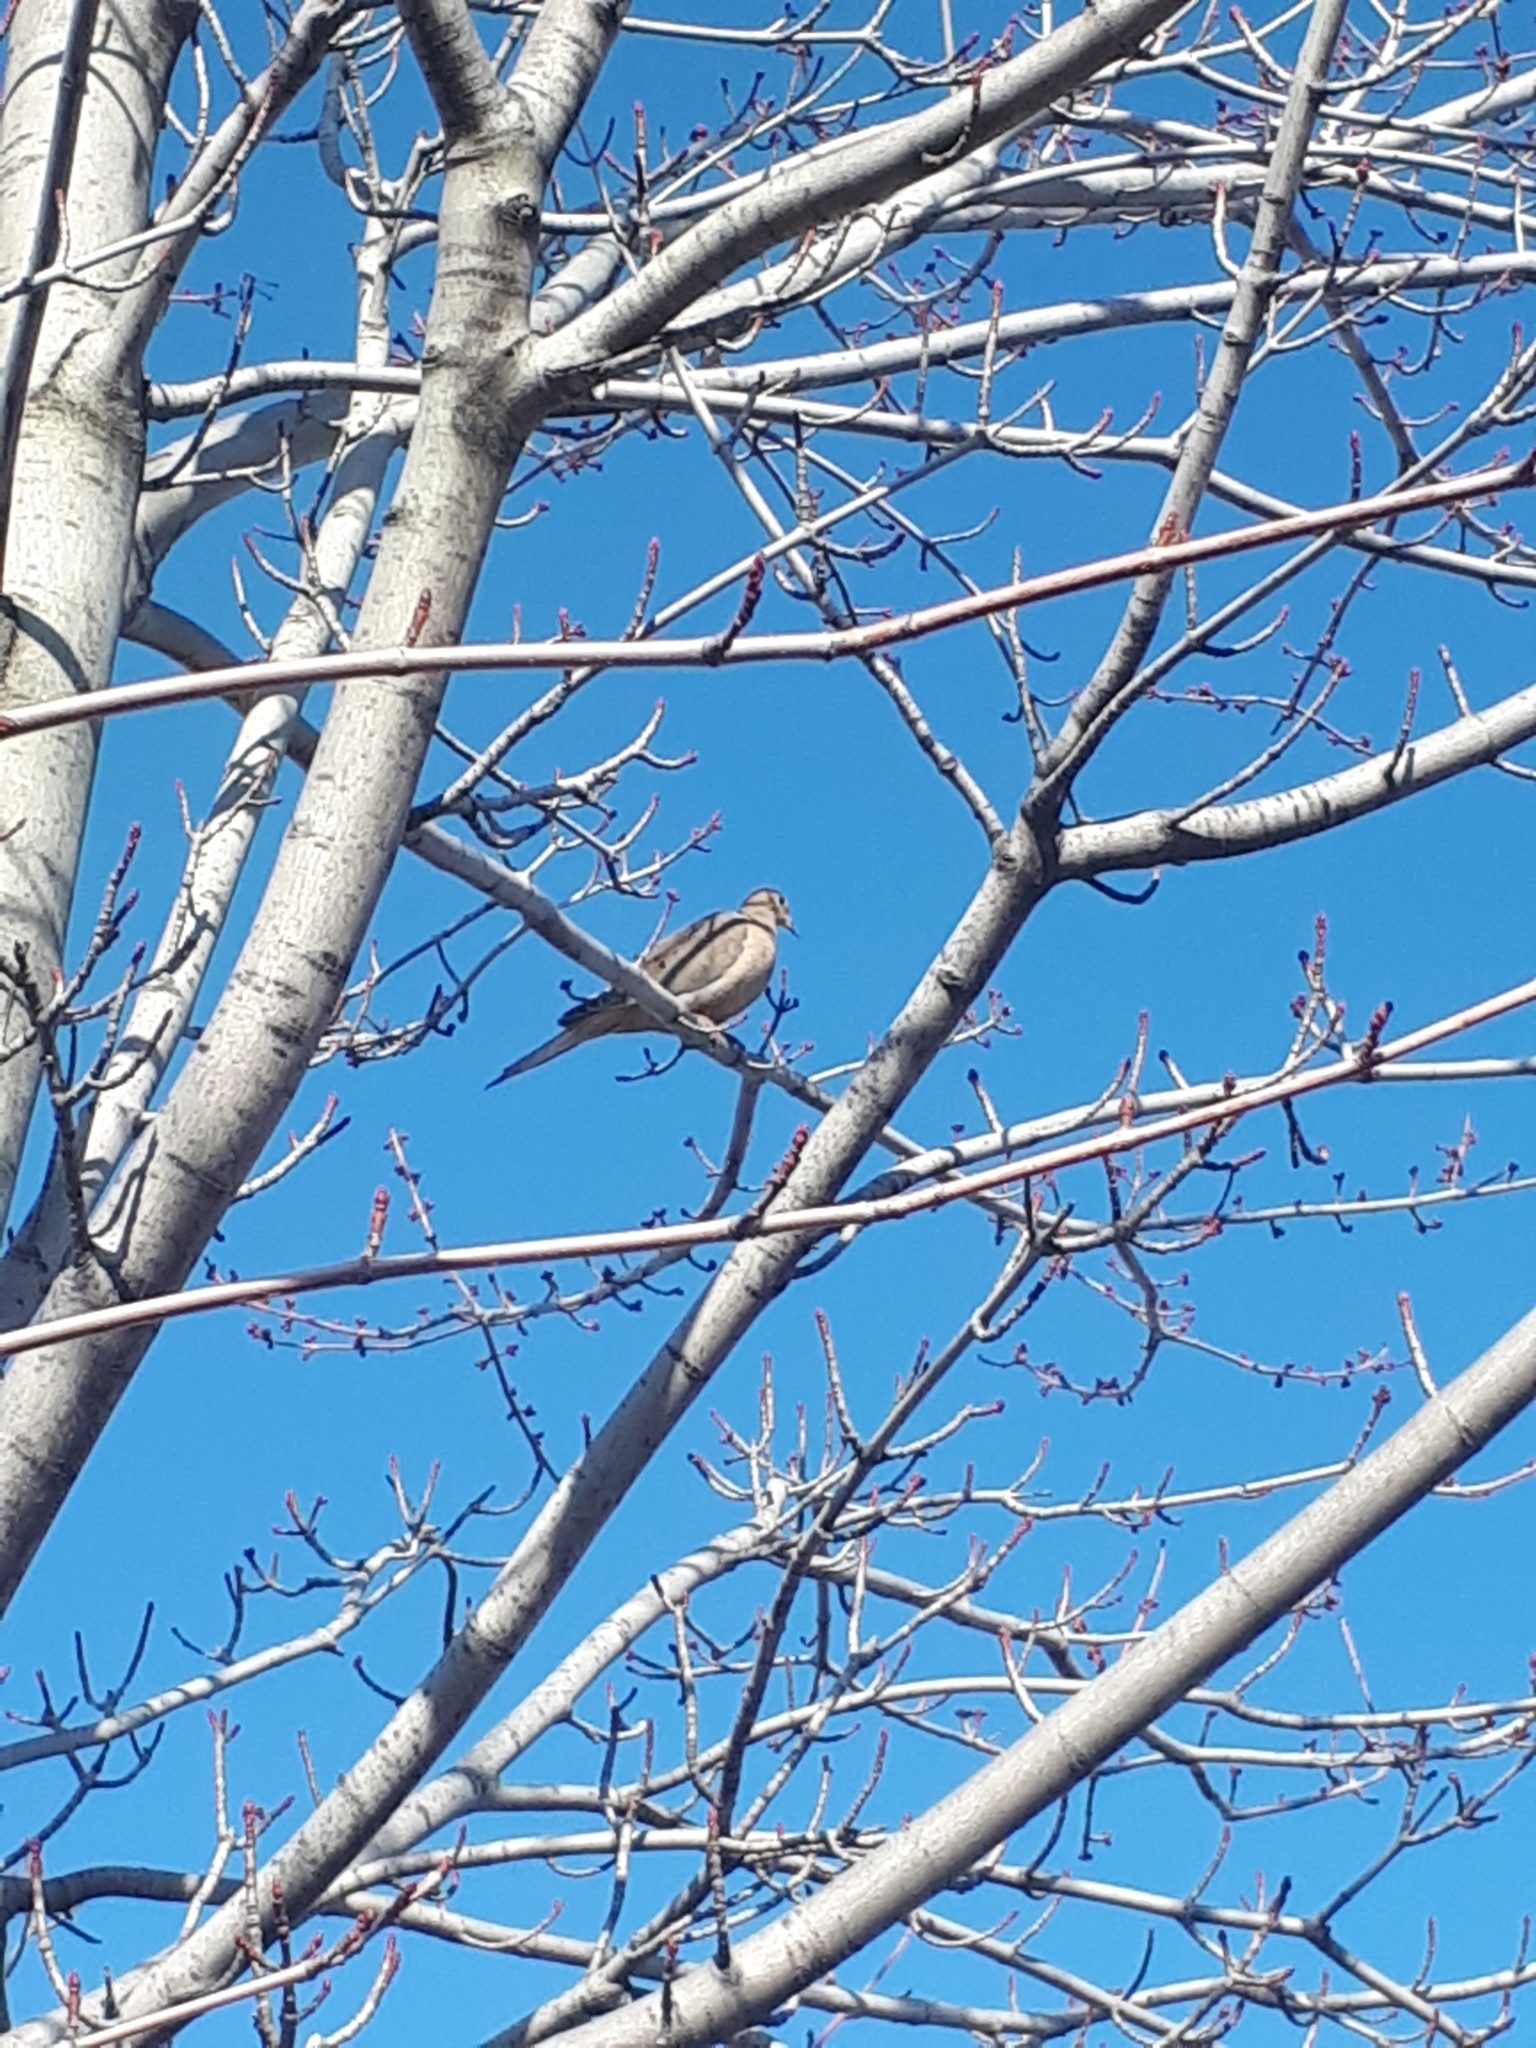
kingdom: Animalia
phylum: Chordata
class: Aves
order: Columbiformes
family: Columbidae
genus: Zenaida
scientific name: Zenaida macroura
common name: Mourning dove
